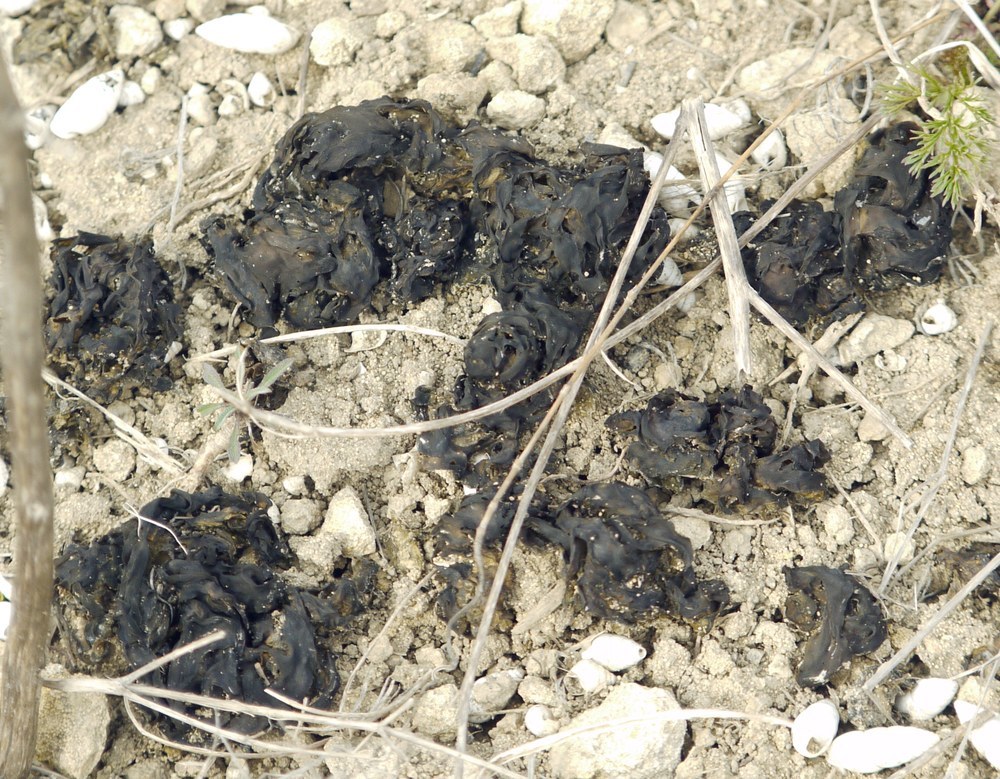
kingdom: Bacteria
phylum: Cyanobacteria
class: Cyanobacteriia
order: Cyanobacteriales
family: Nostocaceae
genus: Nostoc
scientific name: Nostoc commune
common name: Star jelly
